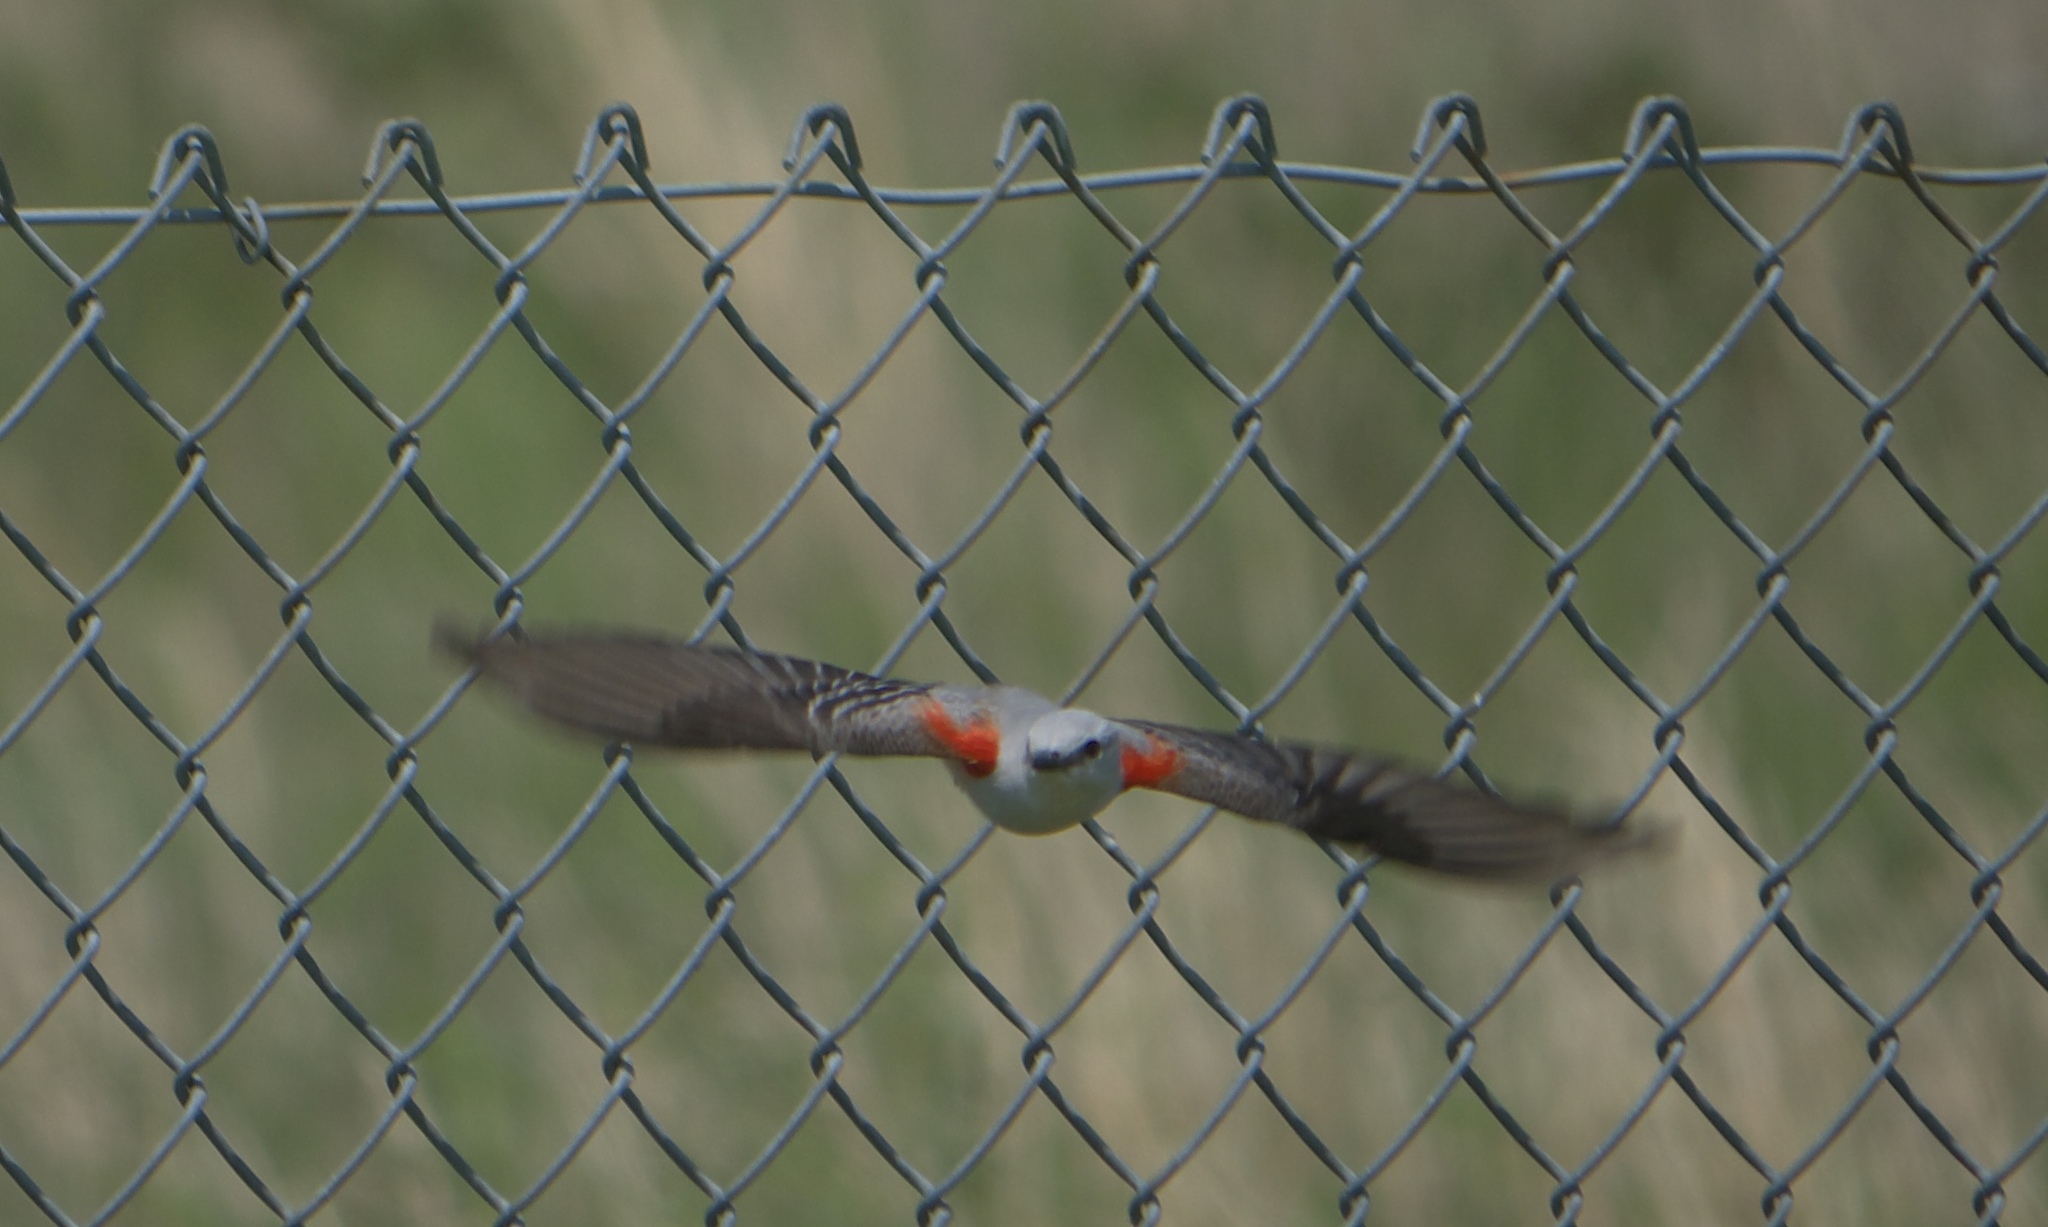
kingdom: Animalia
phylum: Chordata
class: Aves
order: Passeriformes
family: Tyrannidae
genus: Tyrannus
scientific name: Tyrannus forficatus
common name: Scissor-tailed flycatcher
